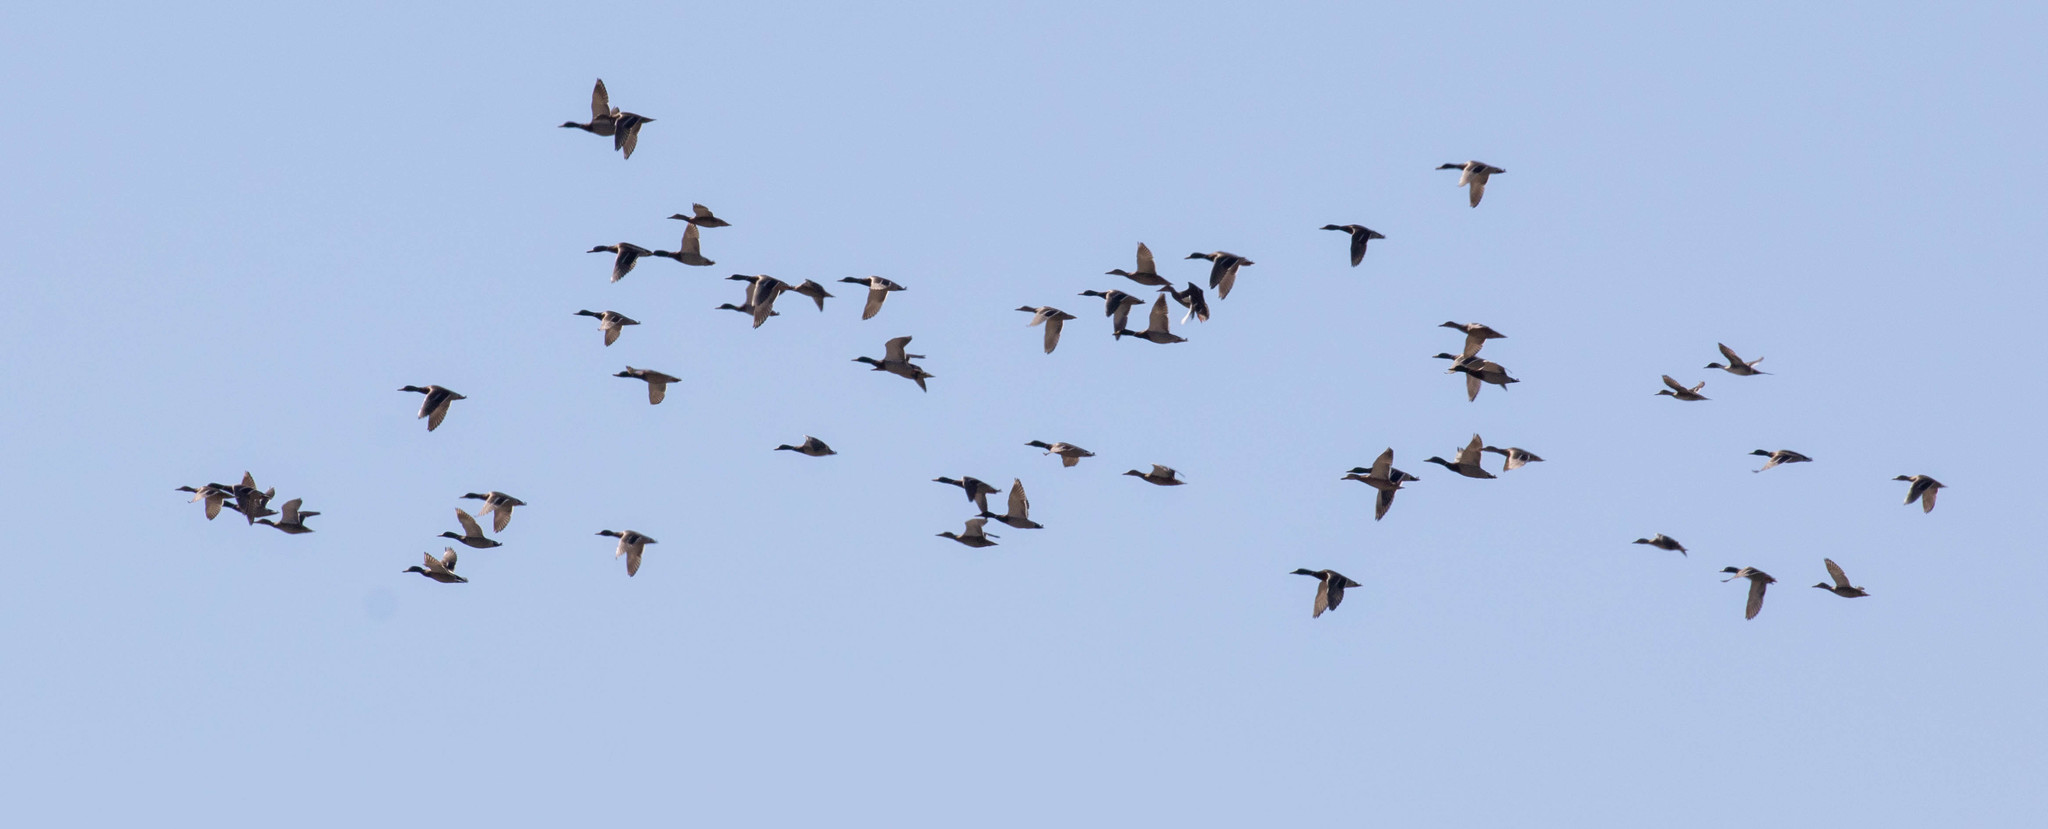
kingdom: Animalia
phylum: Chordata
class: Aves
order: Anseriformes
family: Anatidae
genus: Anas
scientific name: Anas platyrhynchos
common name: Mallard
